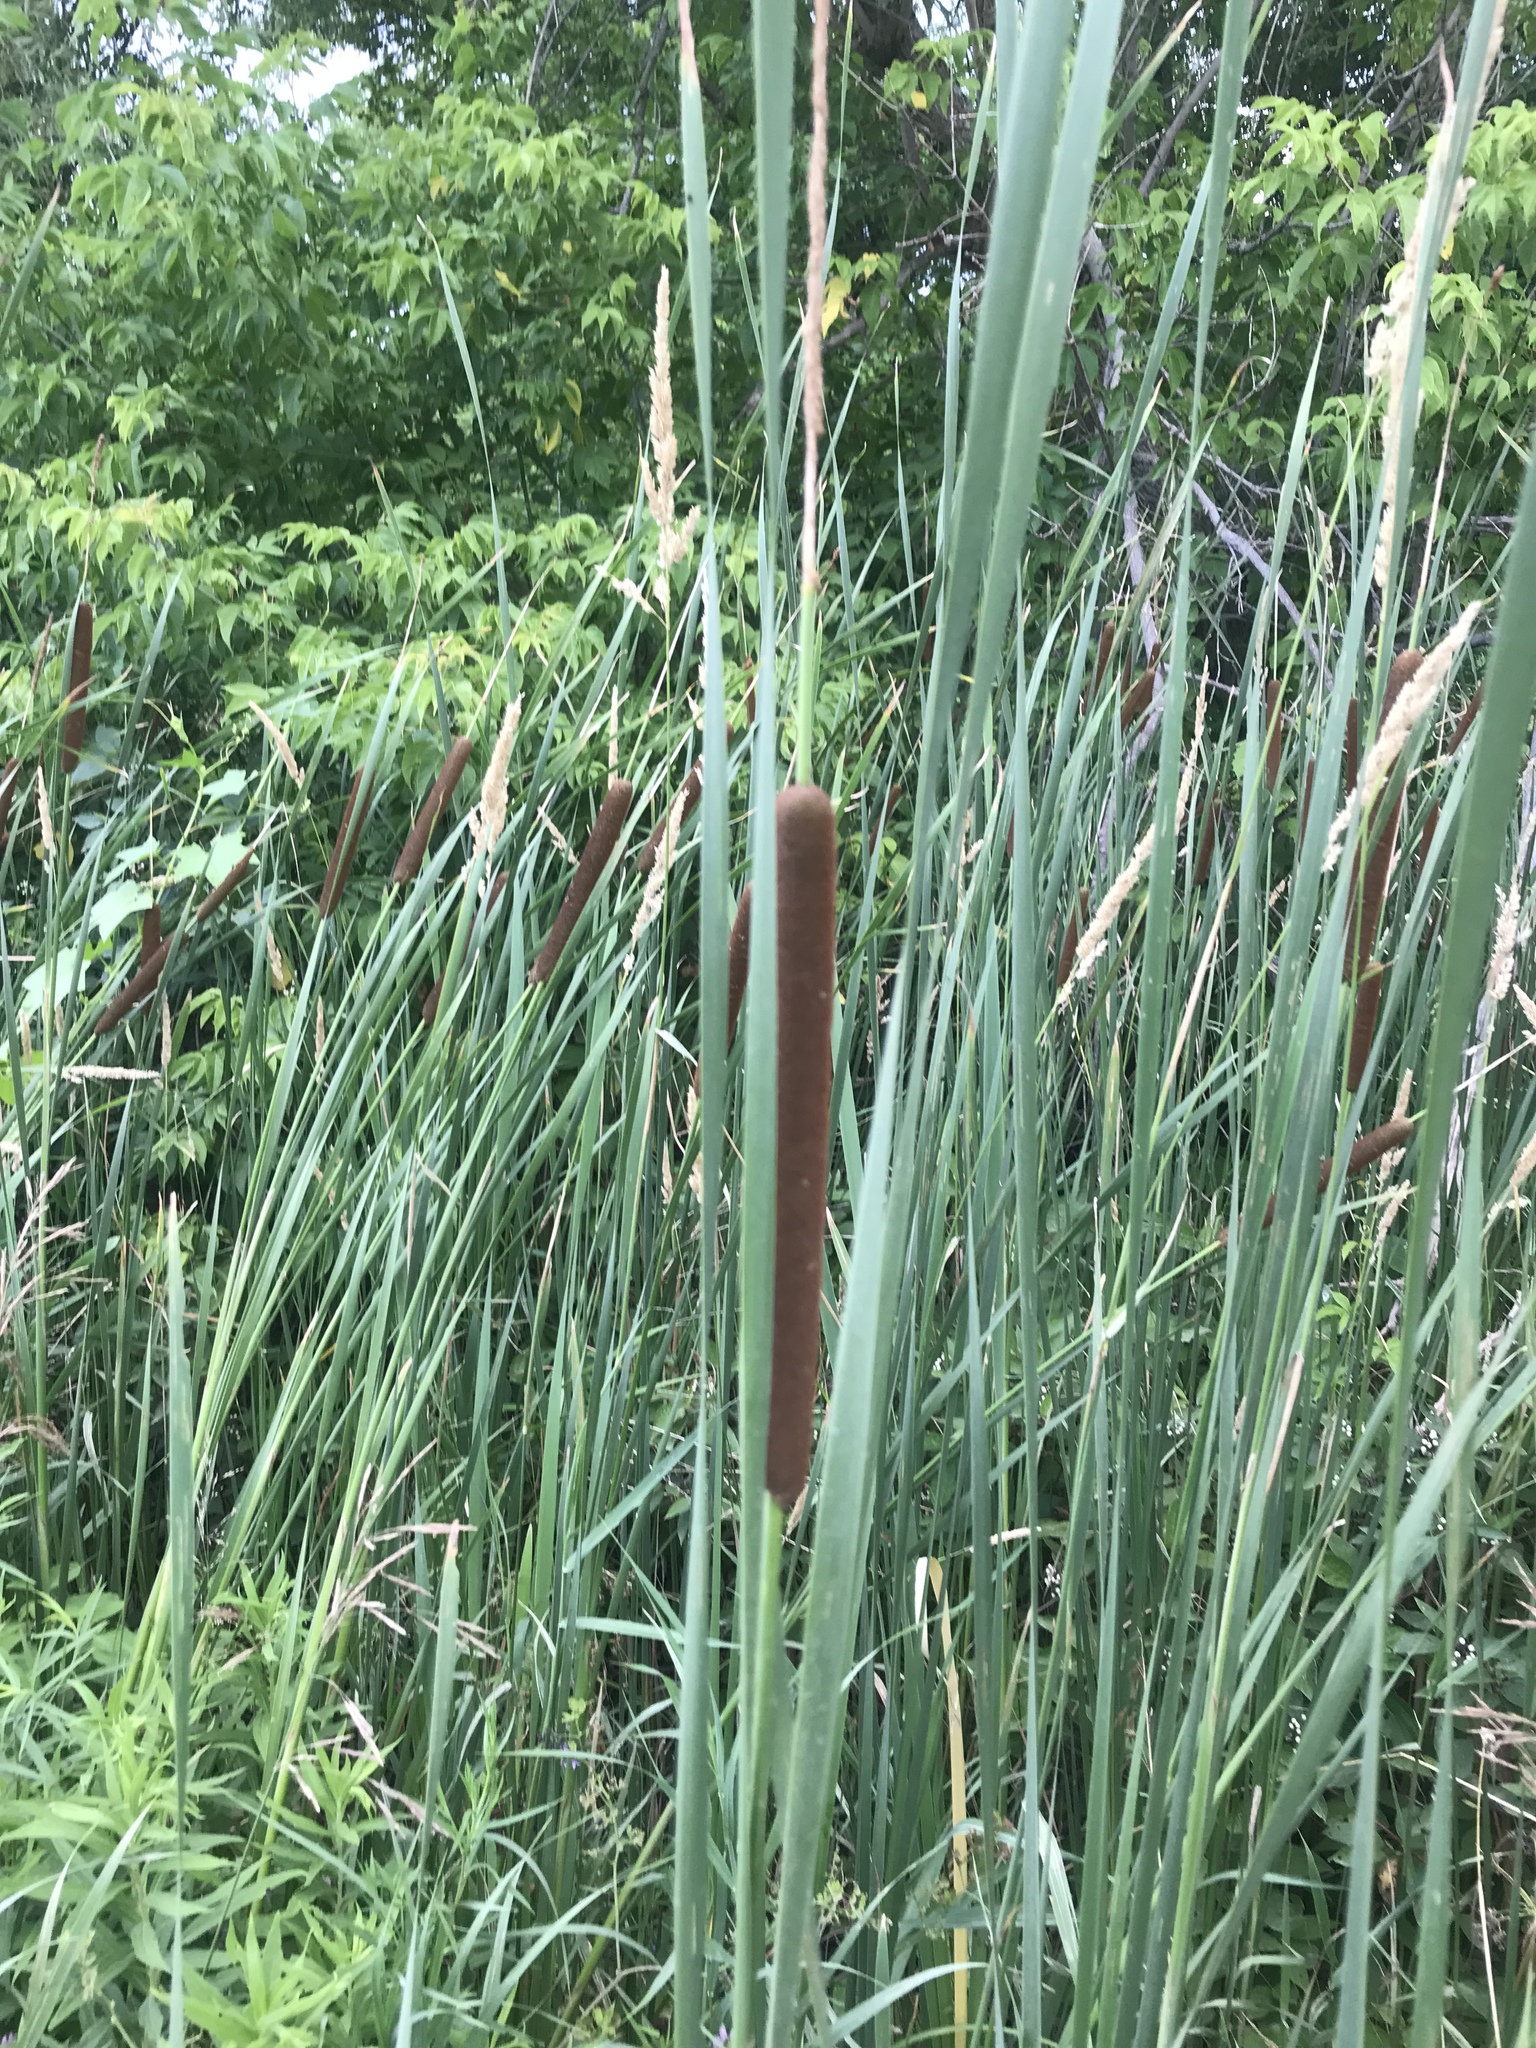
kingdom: Plantae
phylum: Tracheophyta
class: Liliopsida
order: Poales
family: Typhaceae
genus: Typha
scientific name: Typha angustifolia
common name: Lesser bulrush
